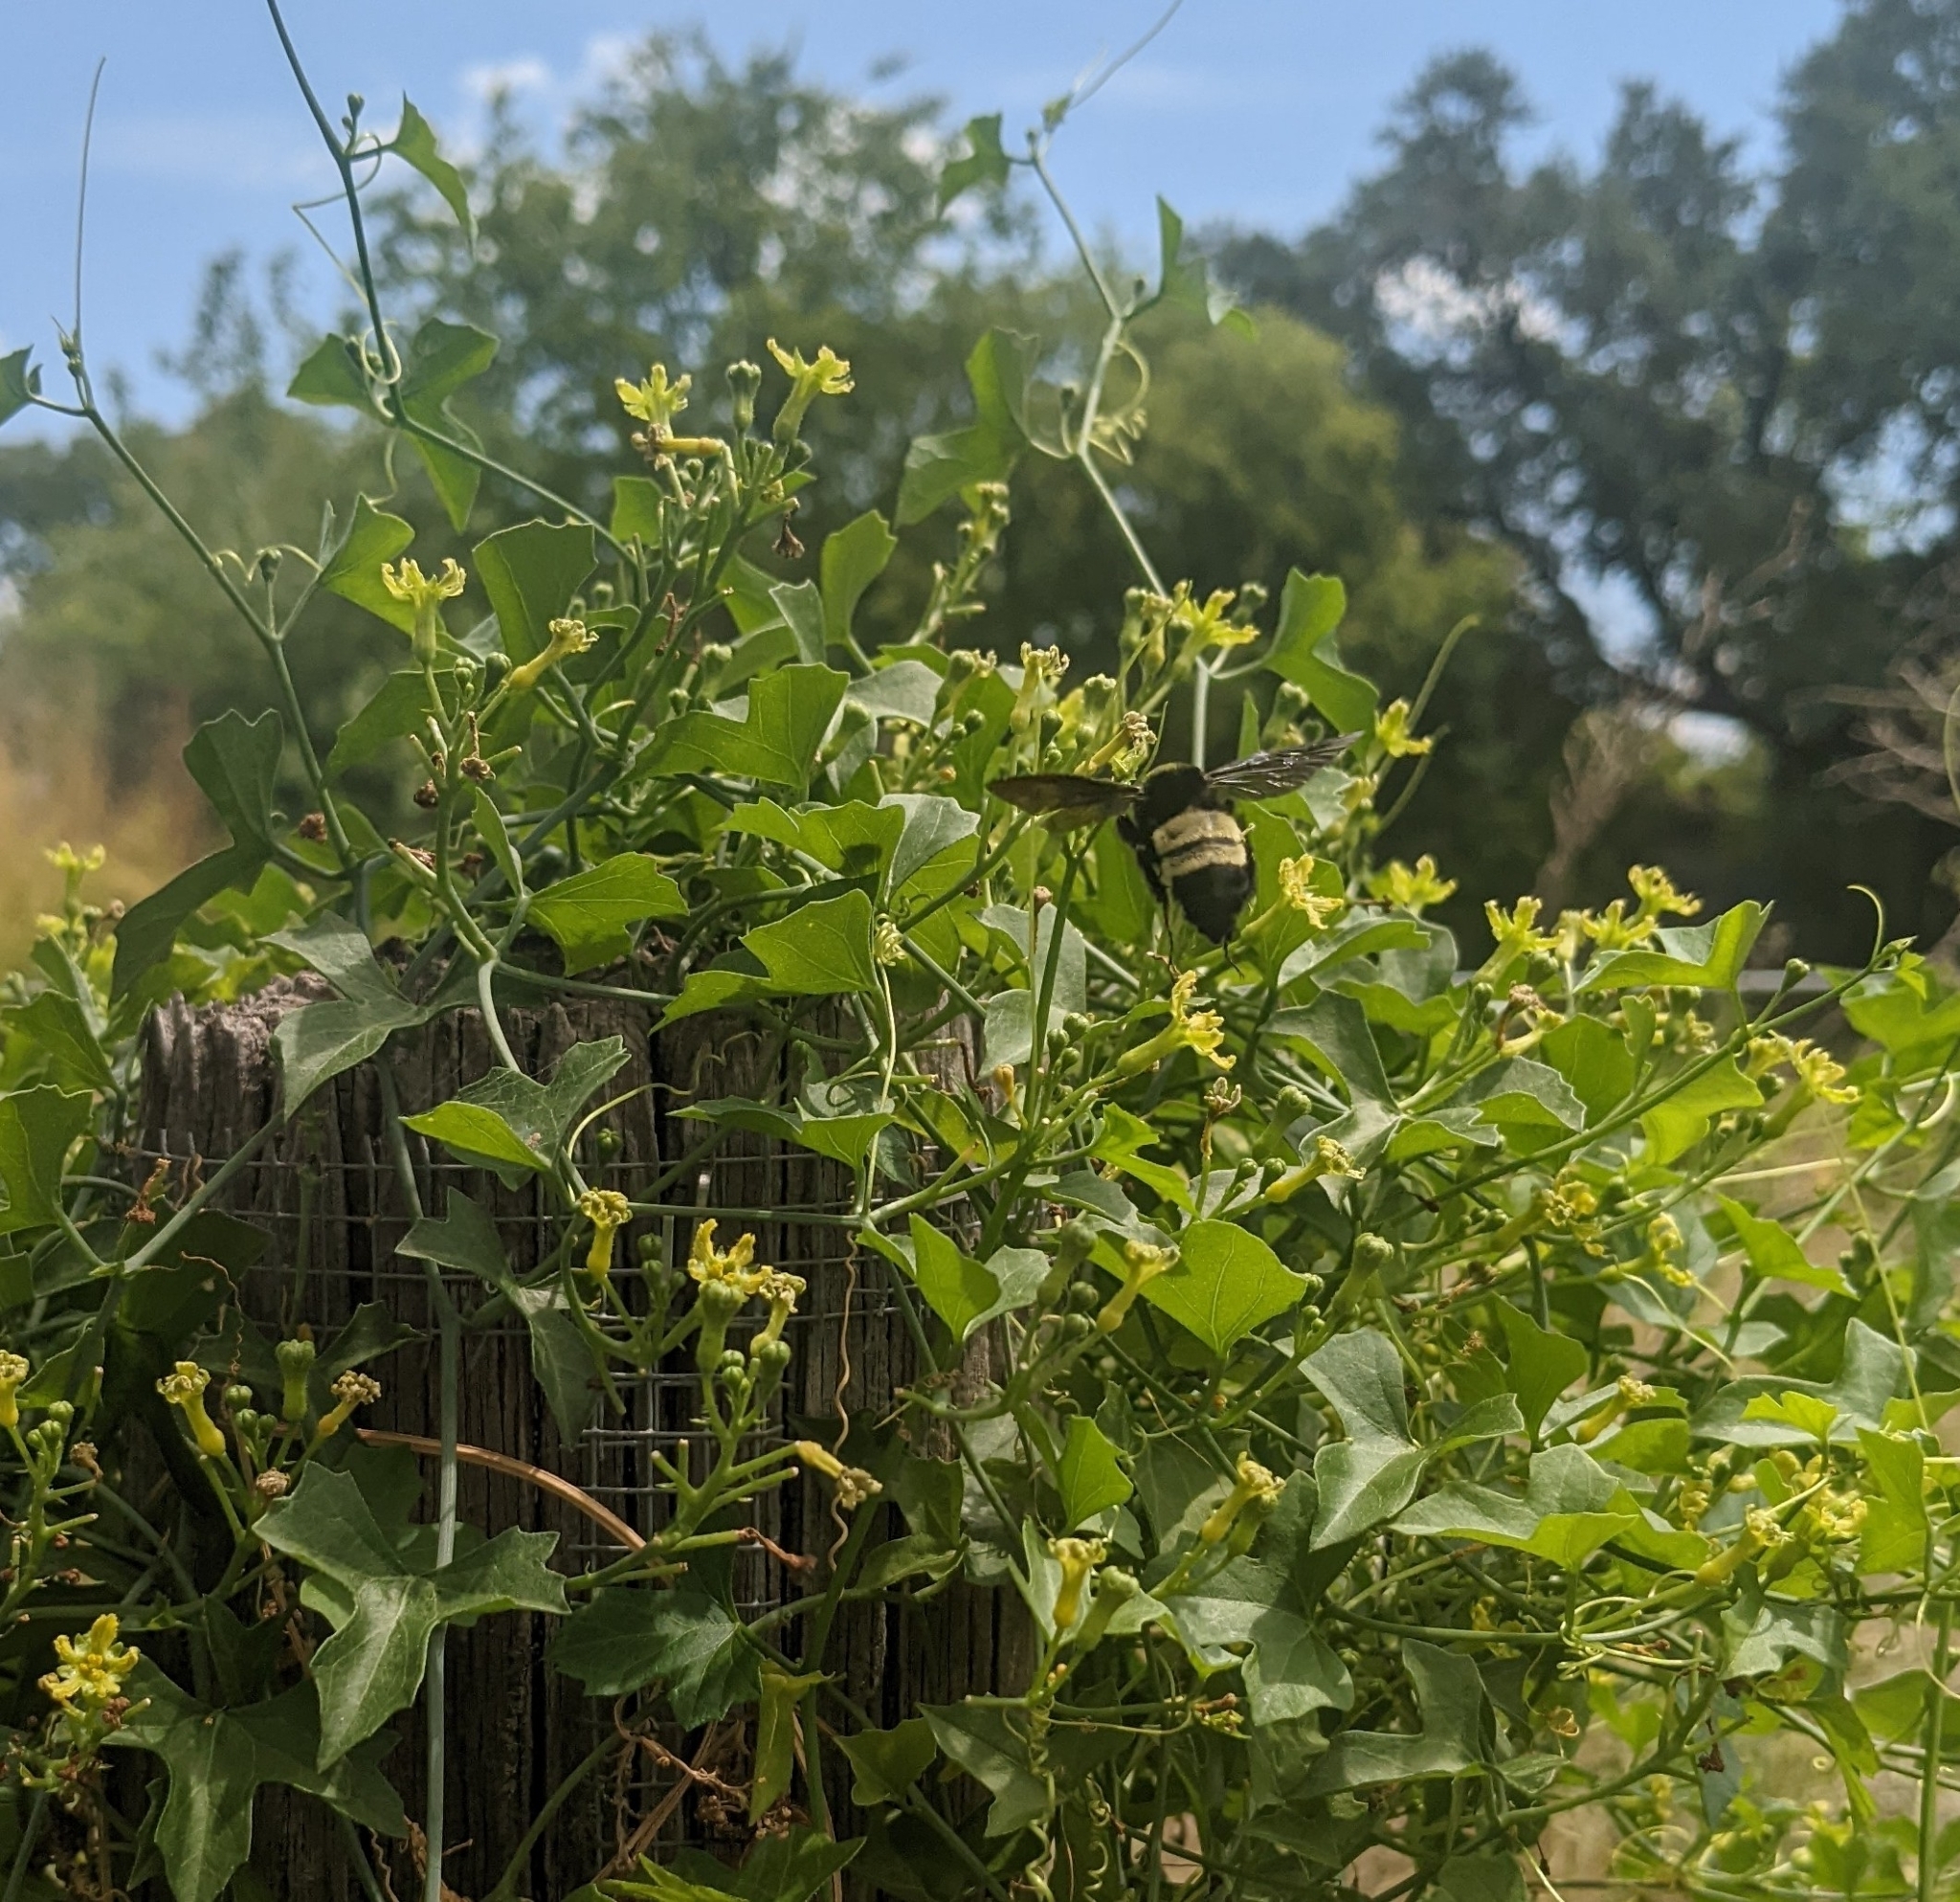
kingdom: Animalia
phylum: Arthropoda
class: Insecta
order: Hymenoptera
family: Apidae
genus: Bombus
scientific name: Bombus pensylvanicus
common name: Bumble bee
